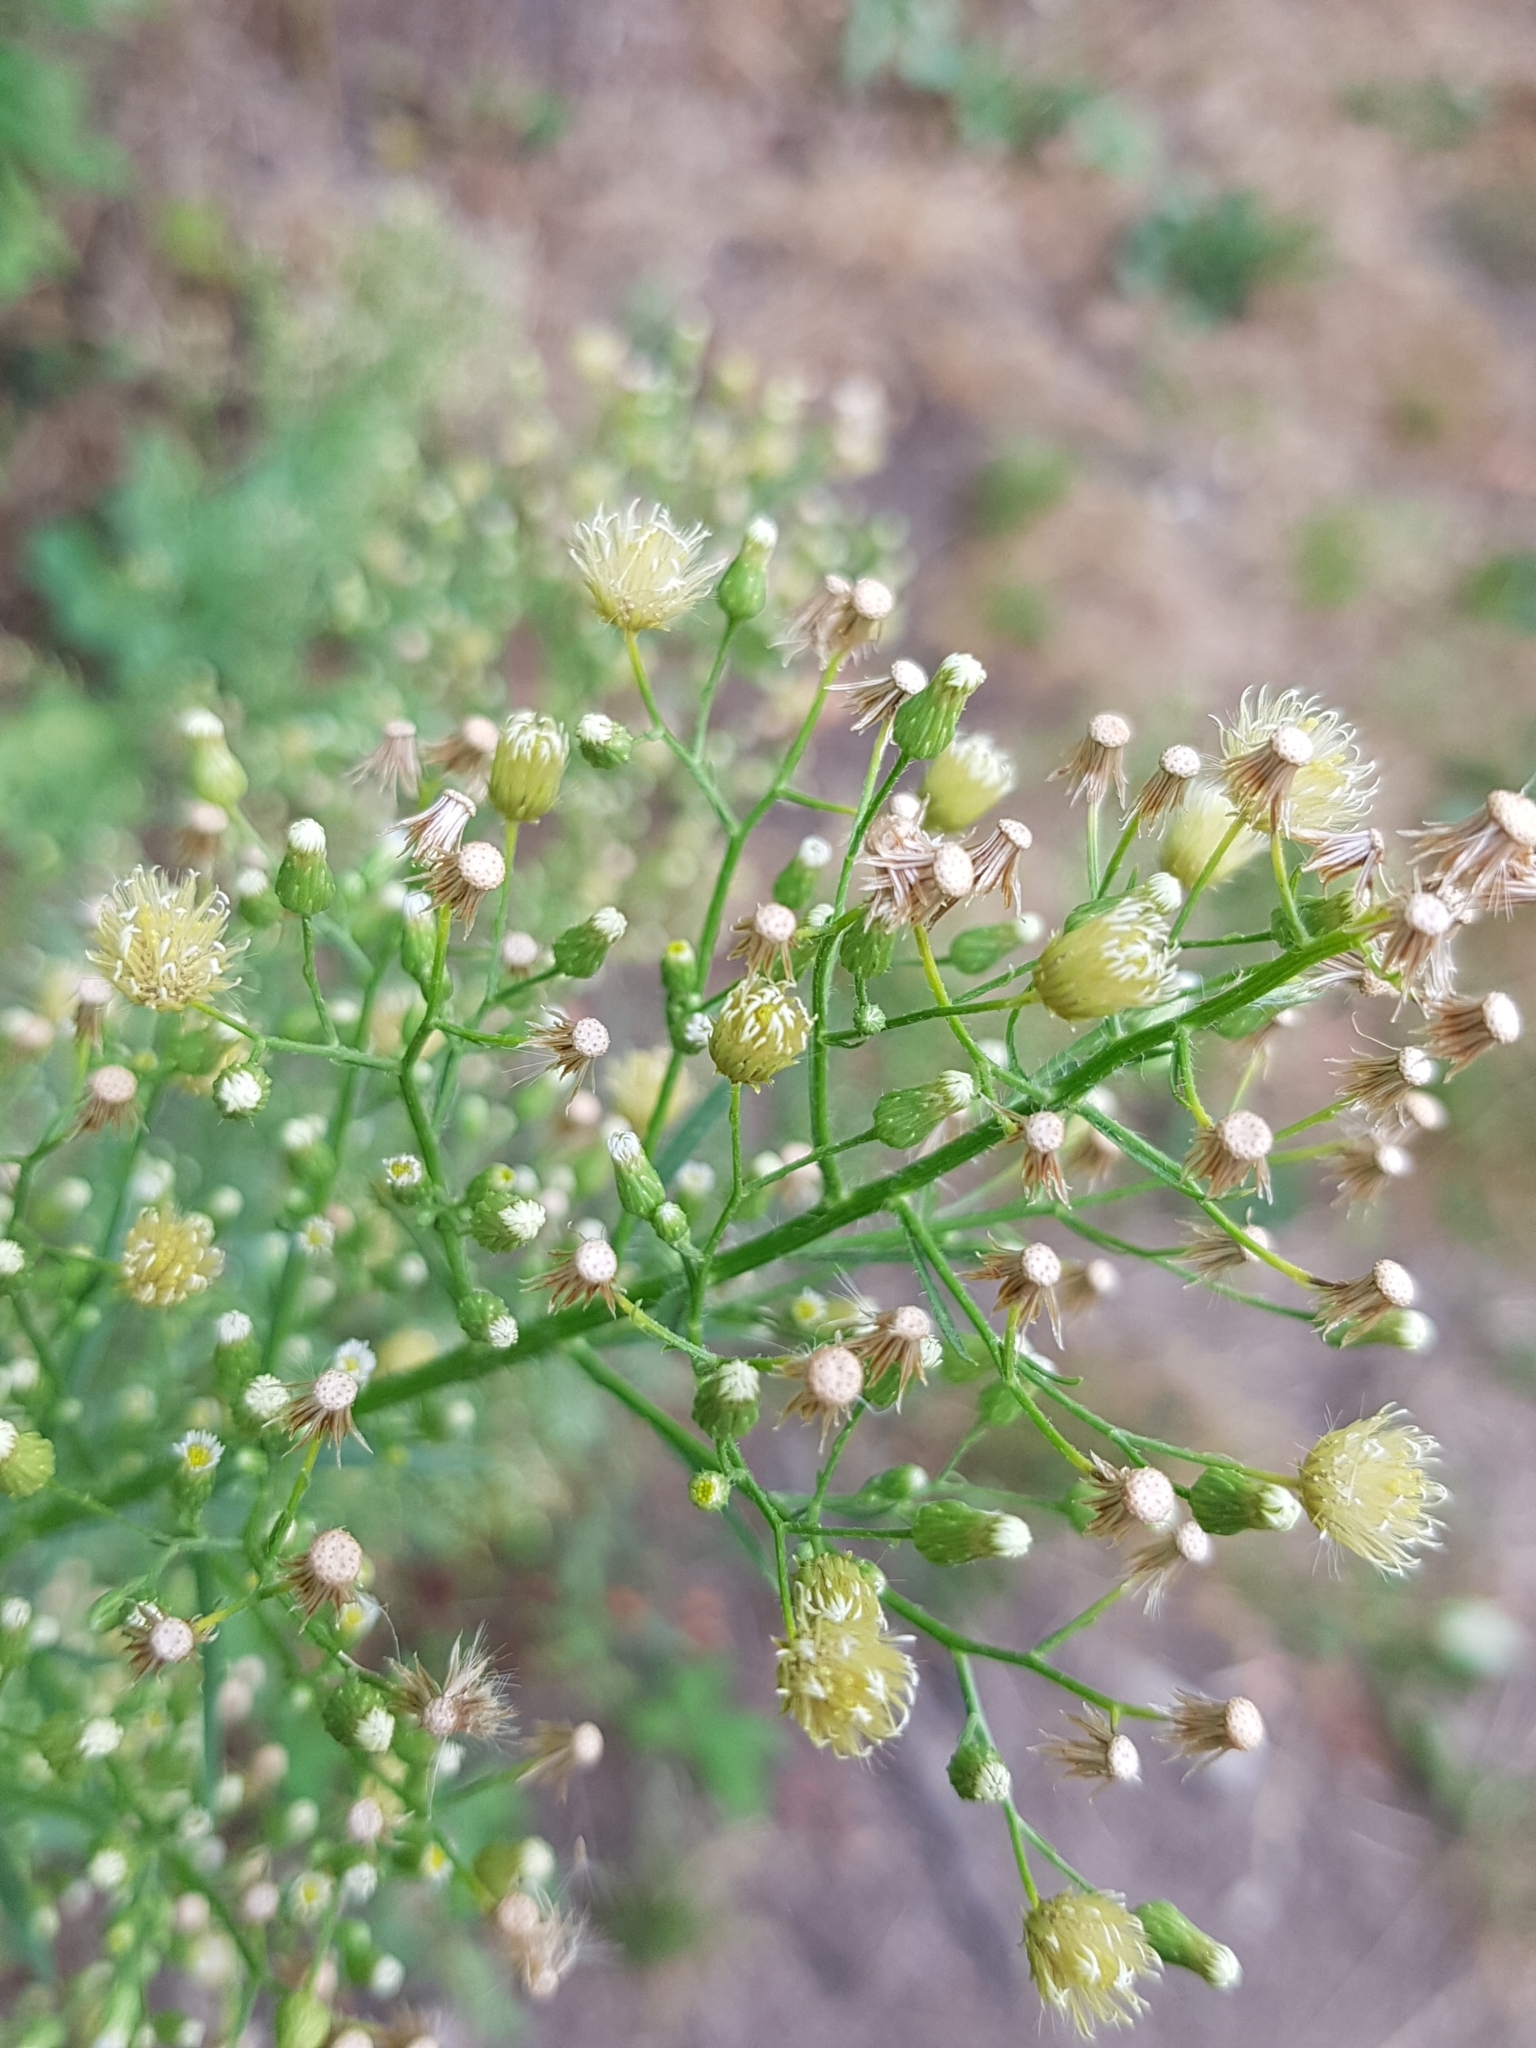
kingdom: Plantae
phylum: Tracheophyta
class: Magnoliopsida
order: Asterales
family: Asteraceae
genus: Erigeron
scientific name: Erigeron canadensis
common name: Canadian fleabane
